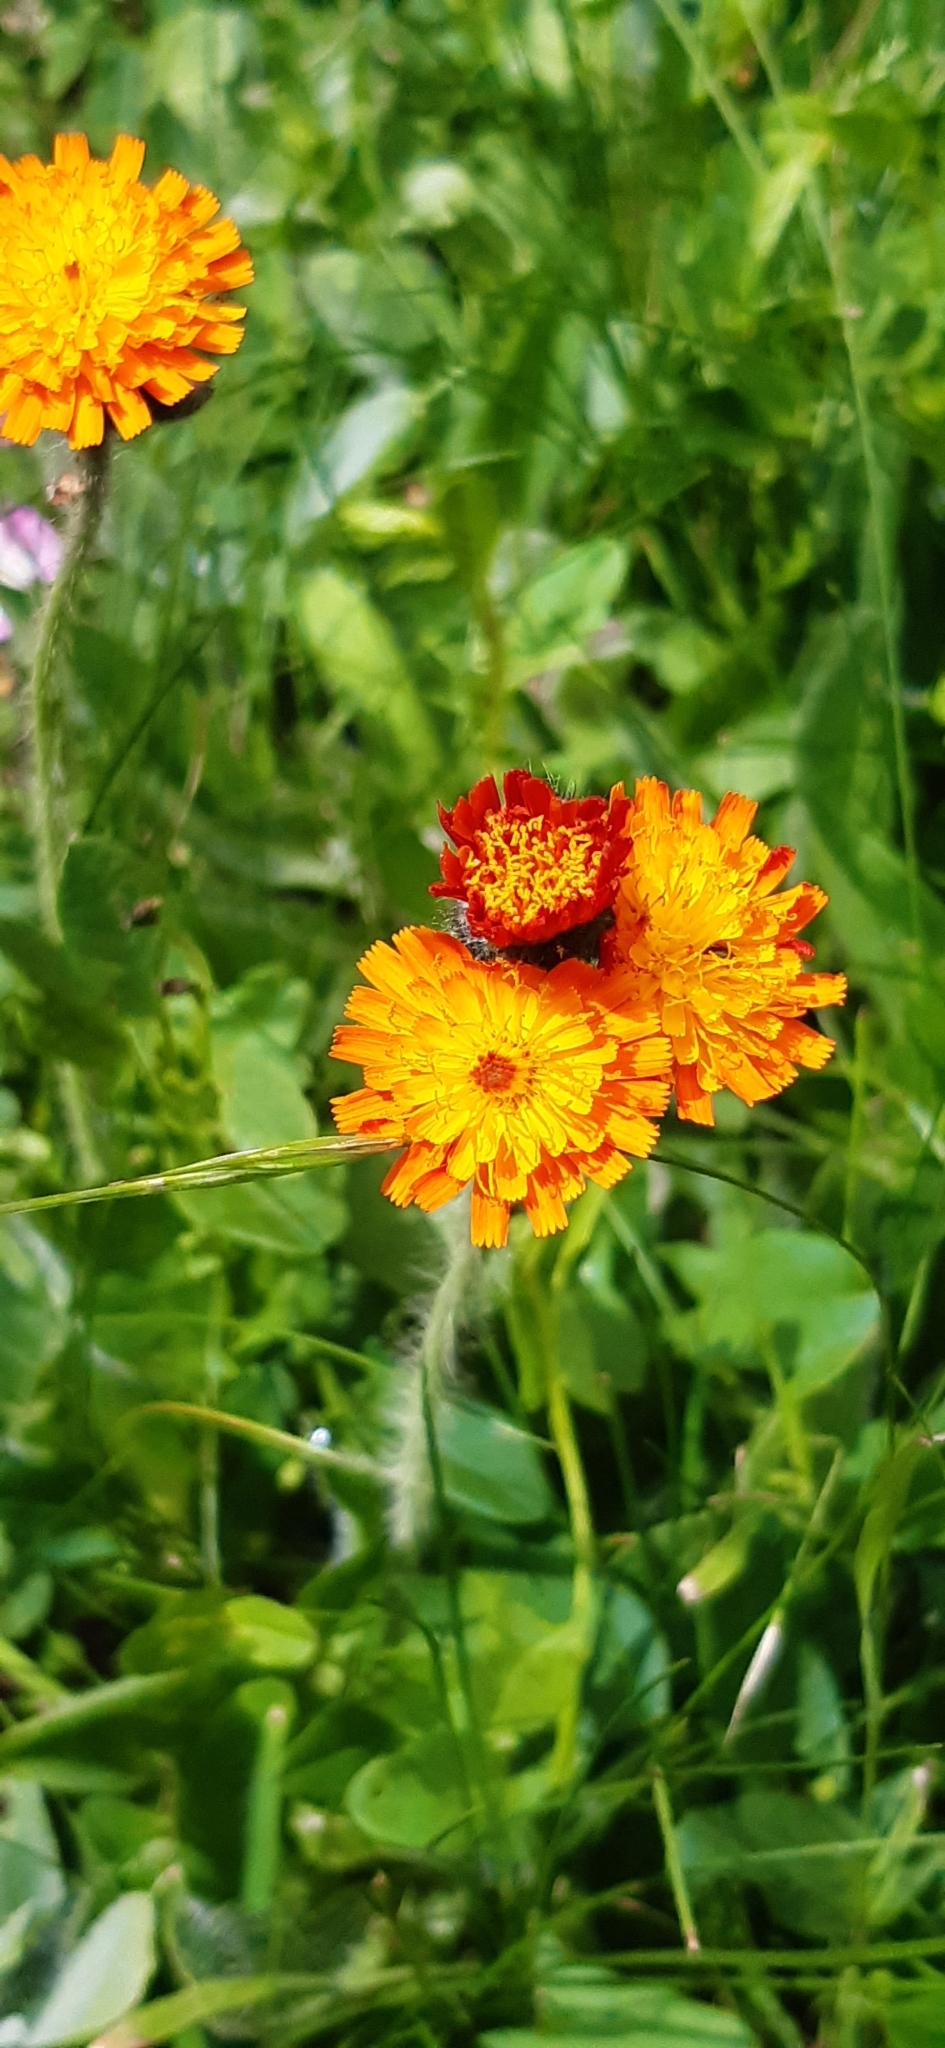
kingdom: Plantae
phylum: Tracheophyta
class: Magnoliopsida
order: Asterales
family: Asteraceae
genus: Pilosella
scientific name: Pilosella aurantiaca
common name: Fox-and-cubs
